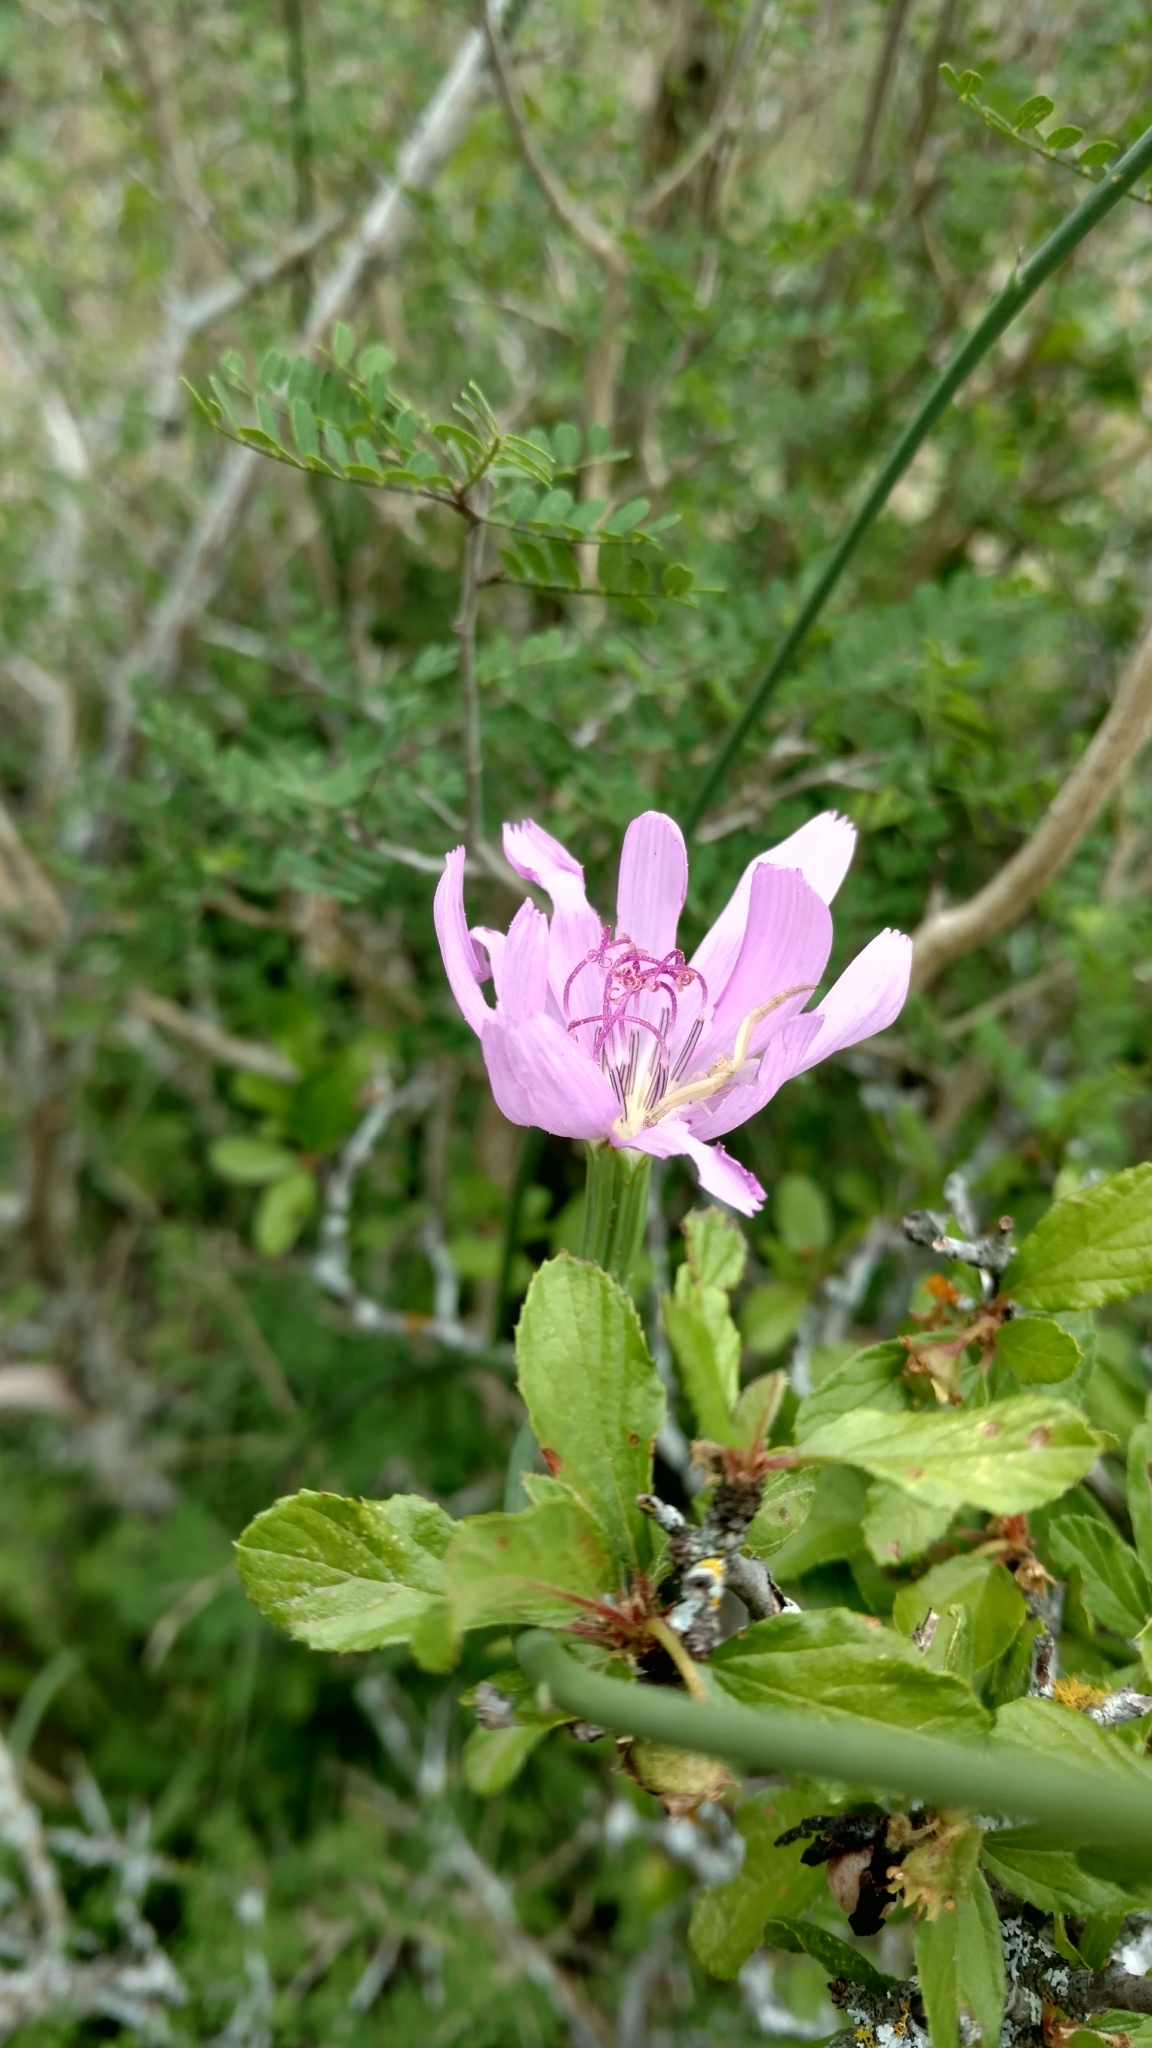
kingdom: Plantae
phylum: Tracheophyta
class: Magnoliopsida
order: Asterales
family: Asteraceae
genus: Lygodesmia
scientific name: Lygodesmia texana
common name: Texas skeleton-plant
